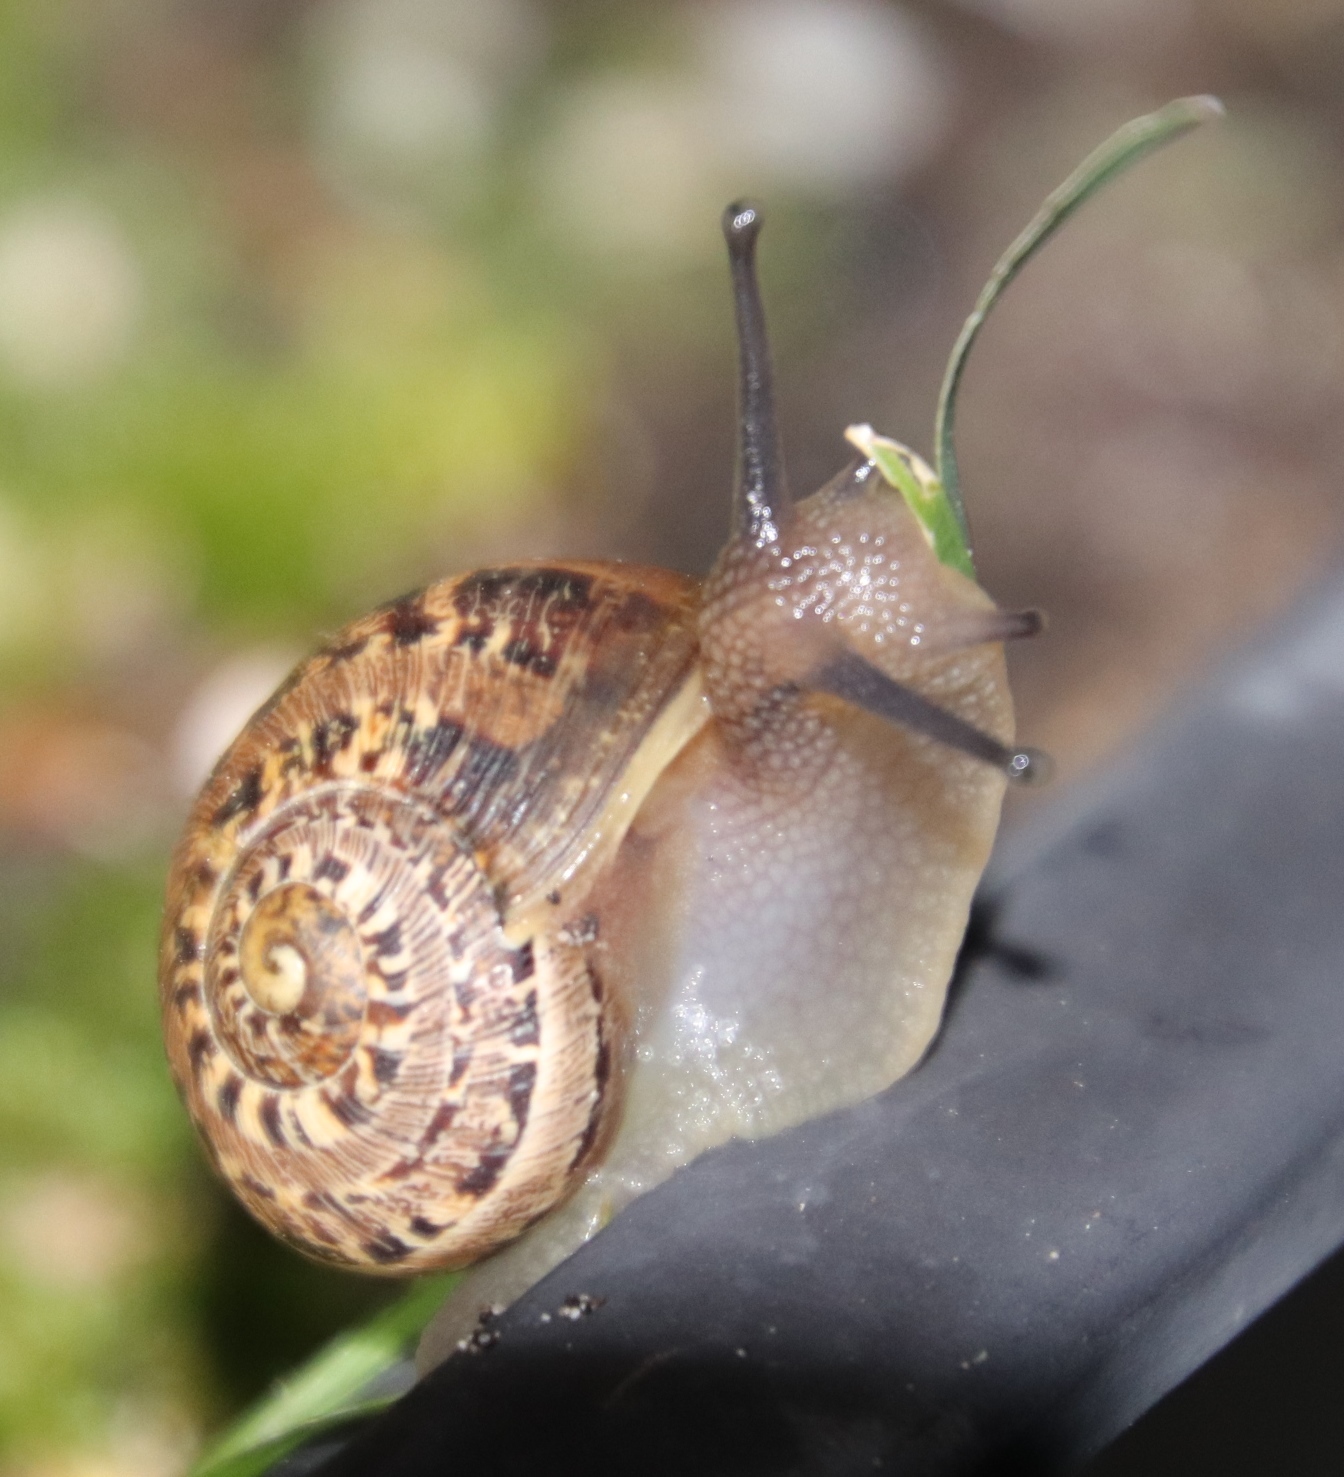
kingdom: Animalia
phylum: Mollusca
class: Gastropoda
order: Stylommatophora
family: Helicidae
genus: Cornu
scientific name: Cornu aspersum
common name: Brown garden snail
